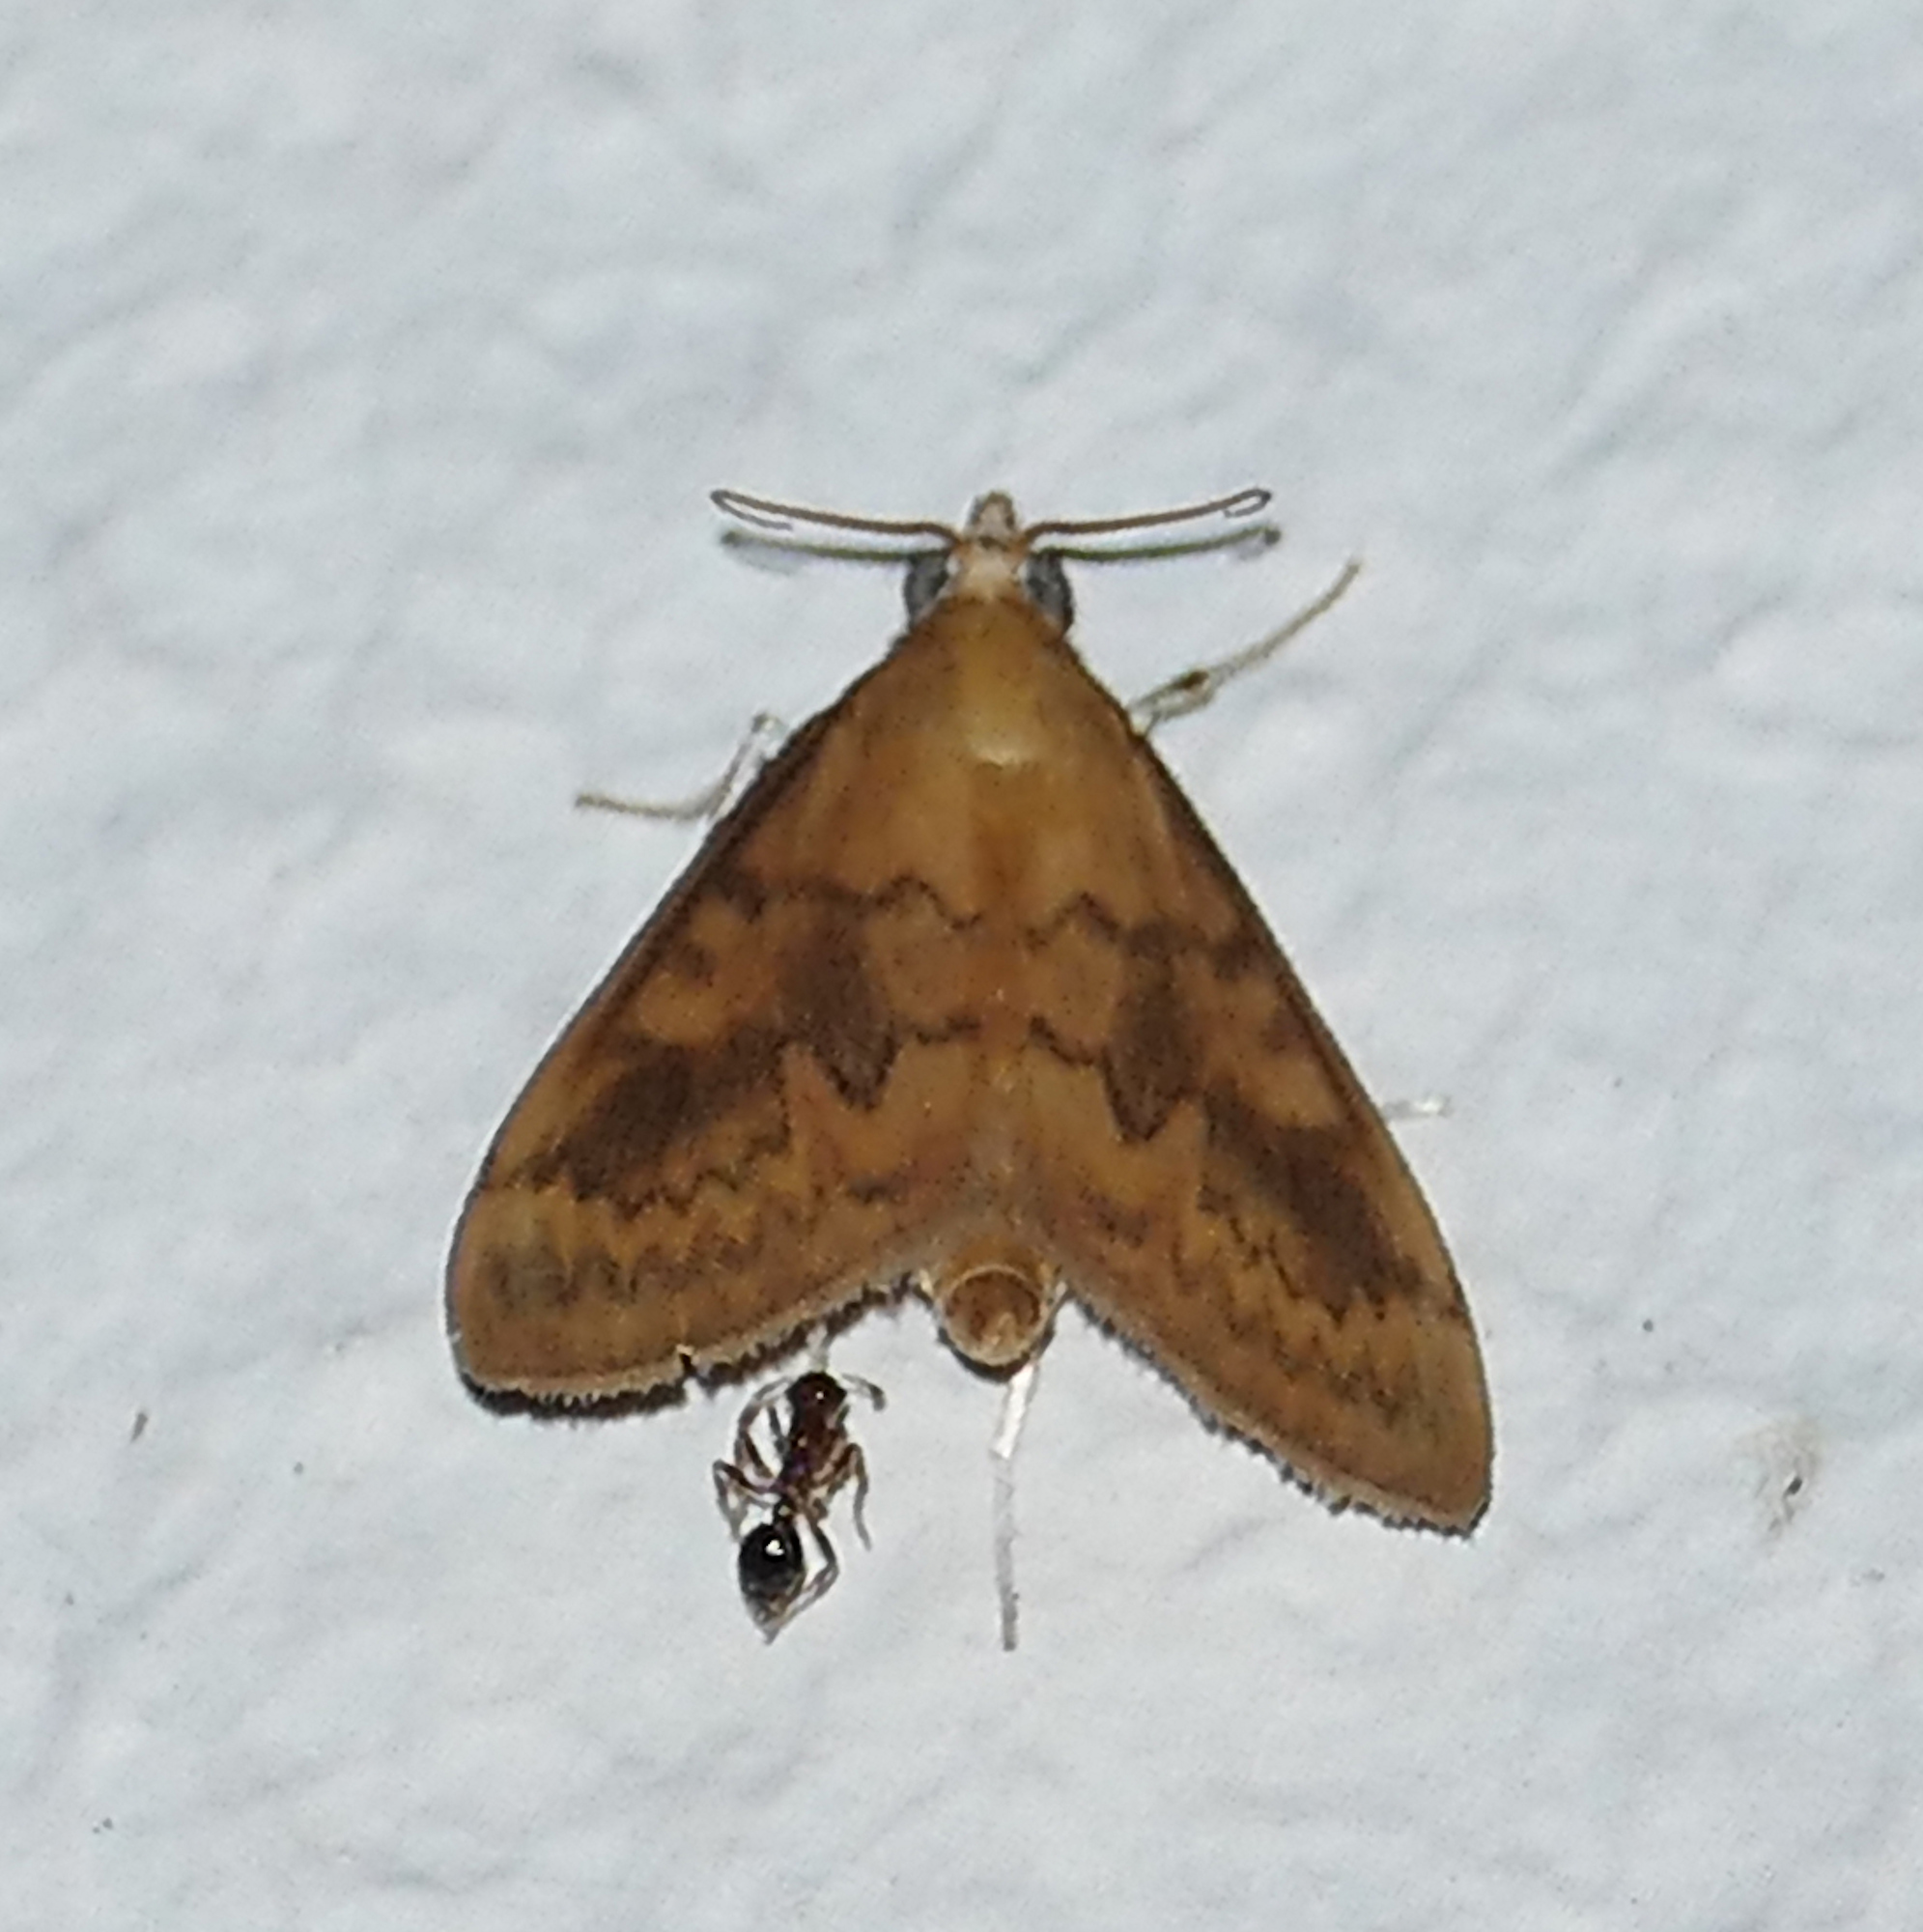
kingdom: Animalia
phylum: Arthropoda
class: Insecta
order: Lepidoptera
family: Crambidae
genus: Ostrinia
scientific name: Ostrinia penitalis
